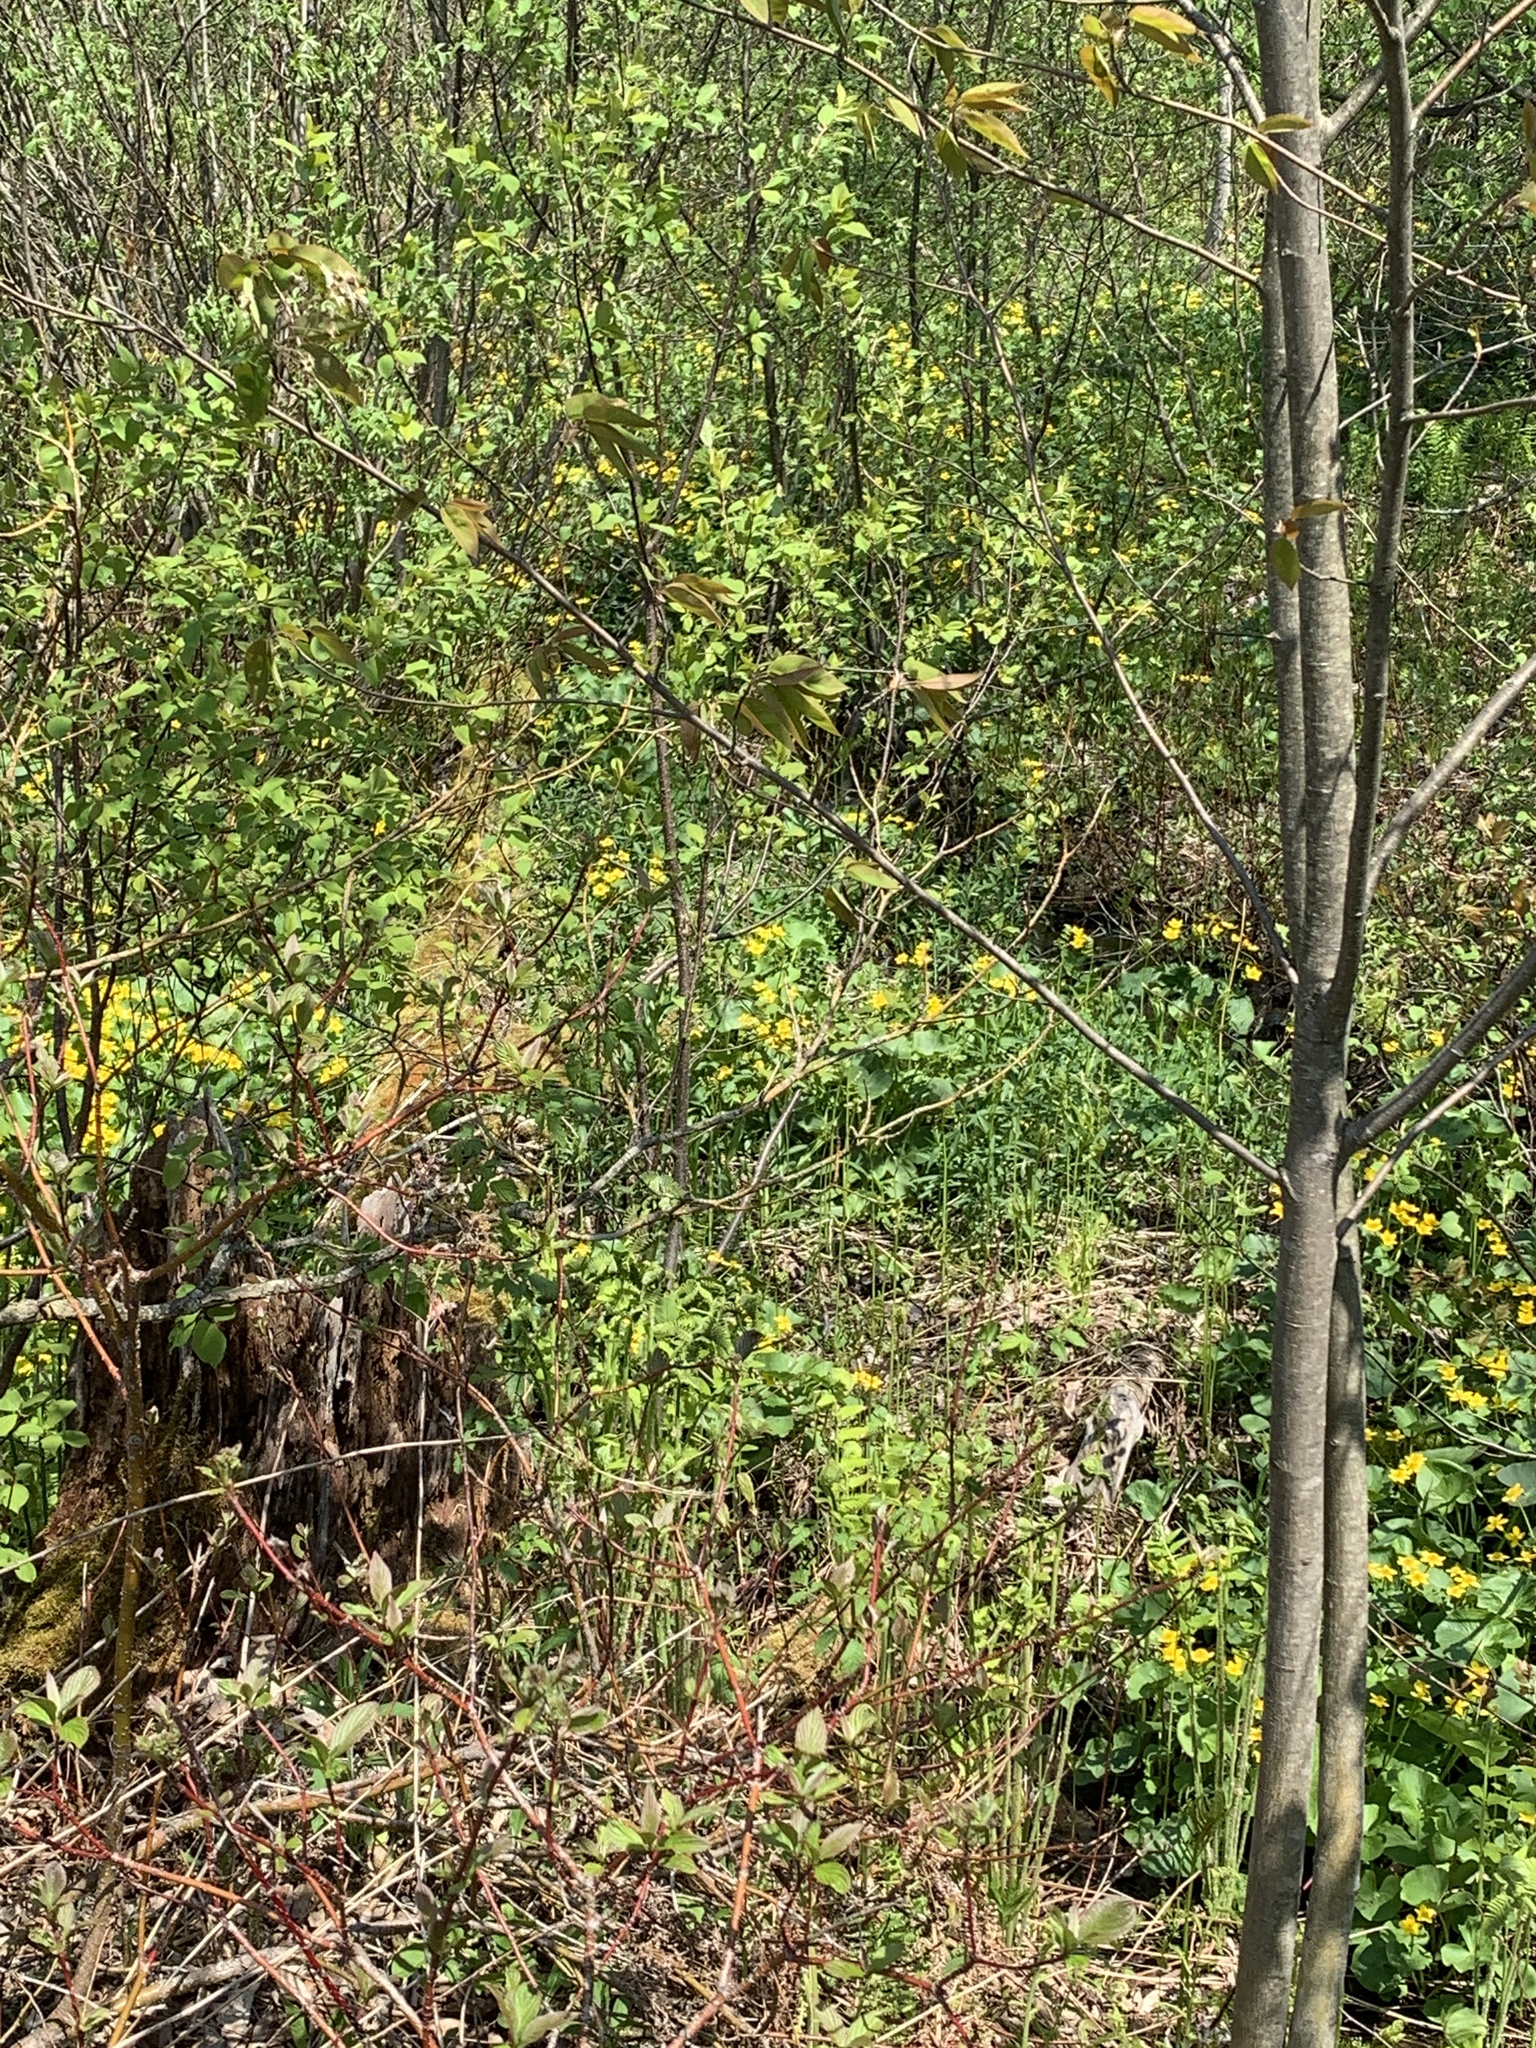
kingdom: Plantae
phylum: Tracheophyta
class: Magnoliopsida
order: Ranunculales
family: Ranunculaceae
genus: Caltha
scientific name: Caltha palustris
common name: Marsh marigold
